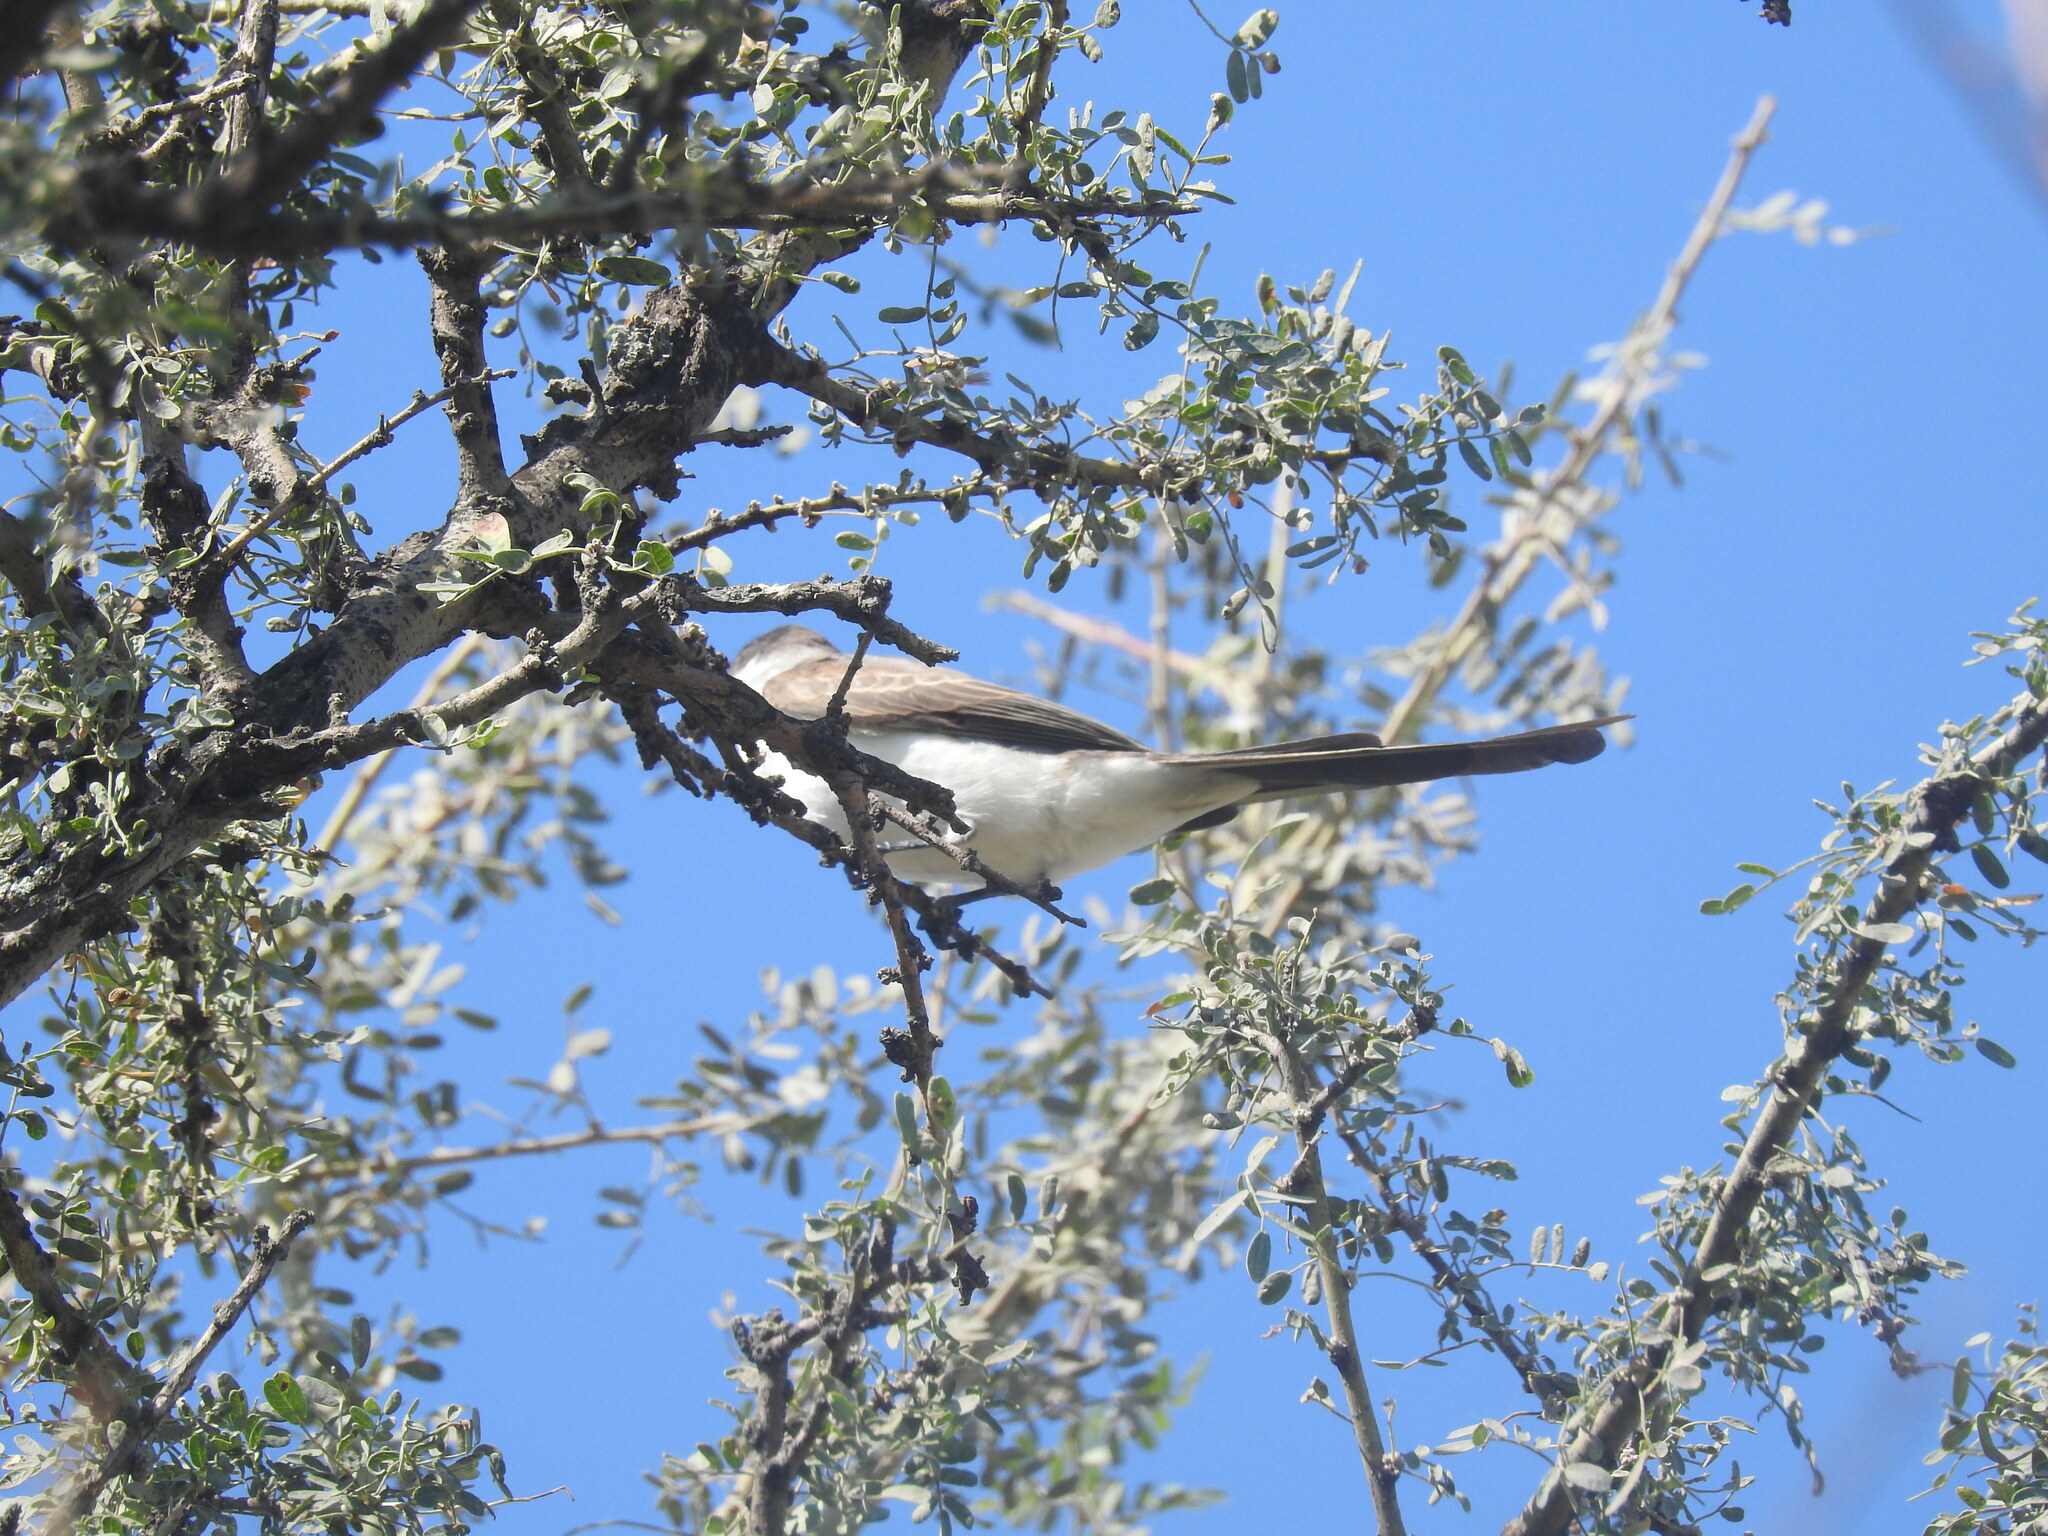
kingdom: Animalia
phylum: Chordata
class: Aves
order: Passeriformes
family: Tyrannidae
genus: Tyrannus
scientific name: Tyrannus savana
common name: Fork-tailed flycatcher
